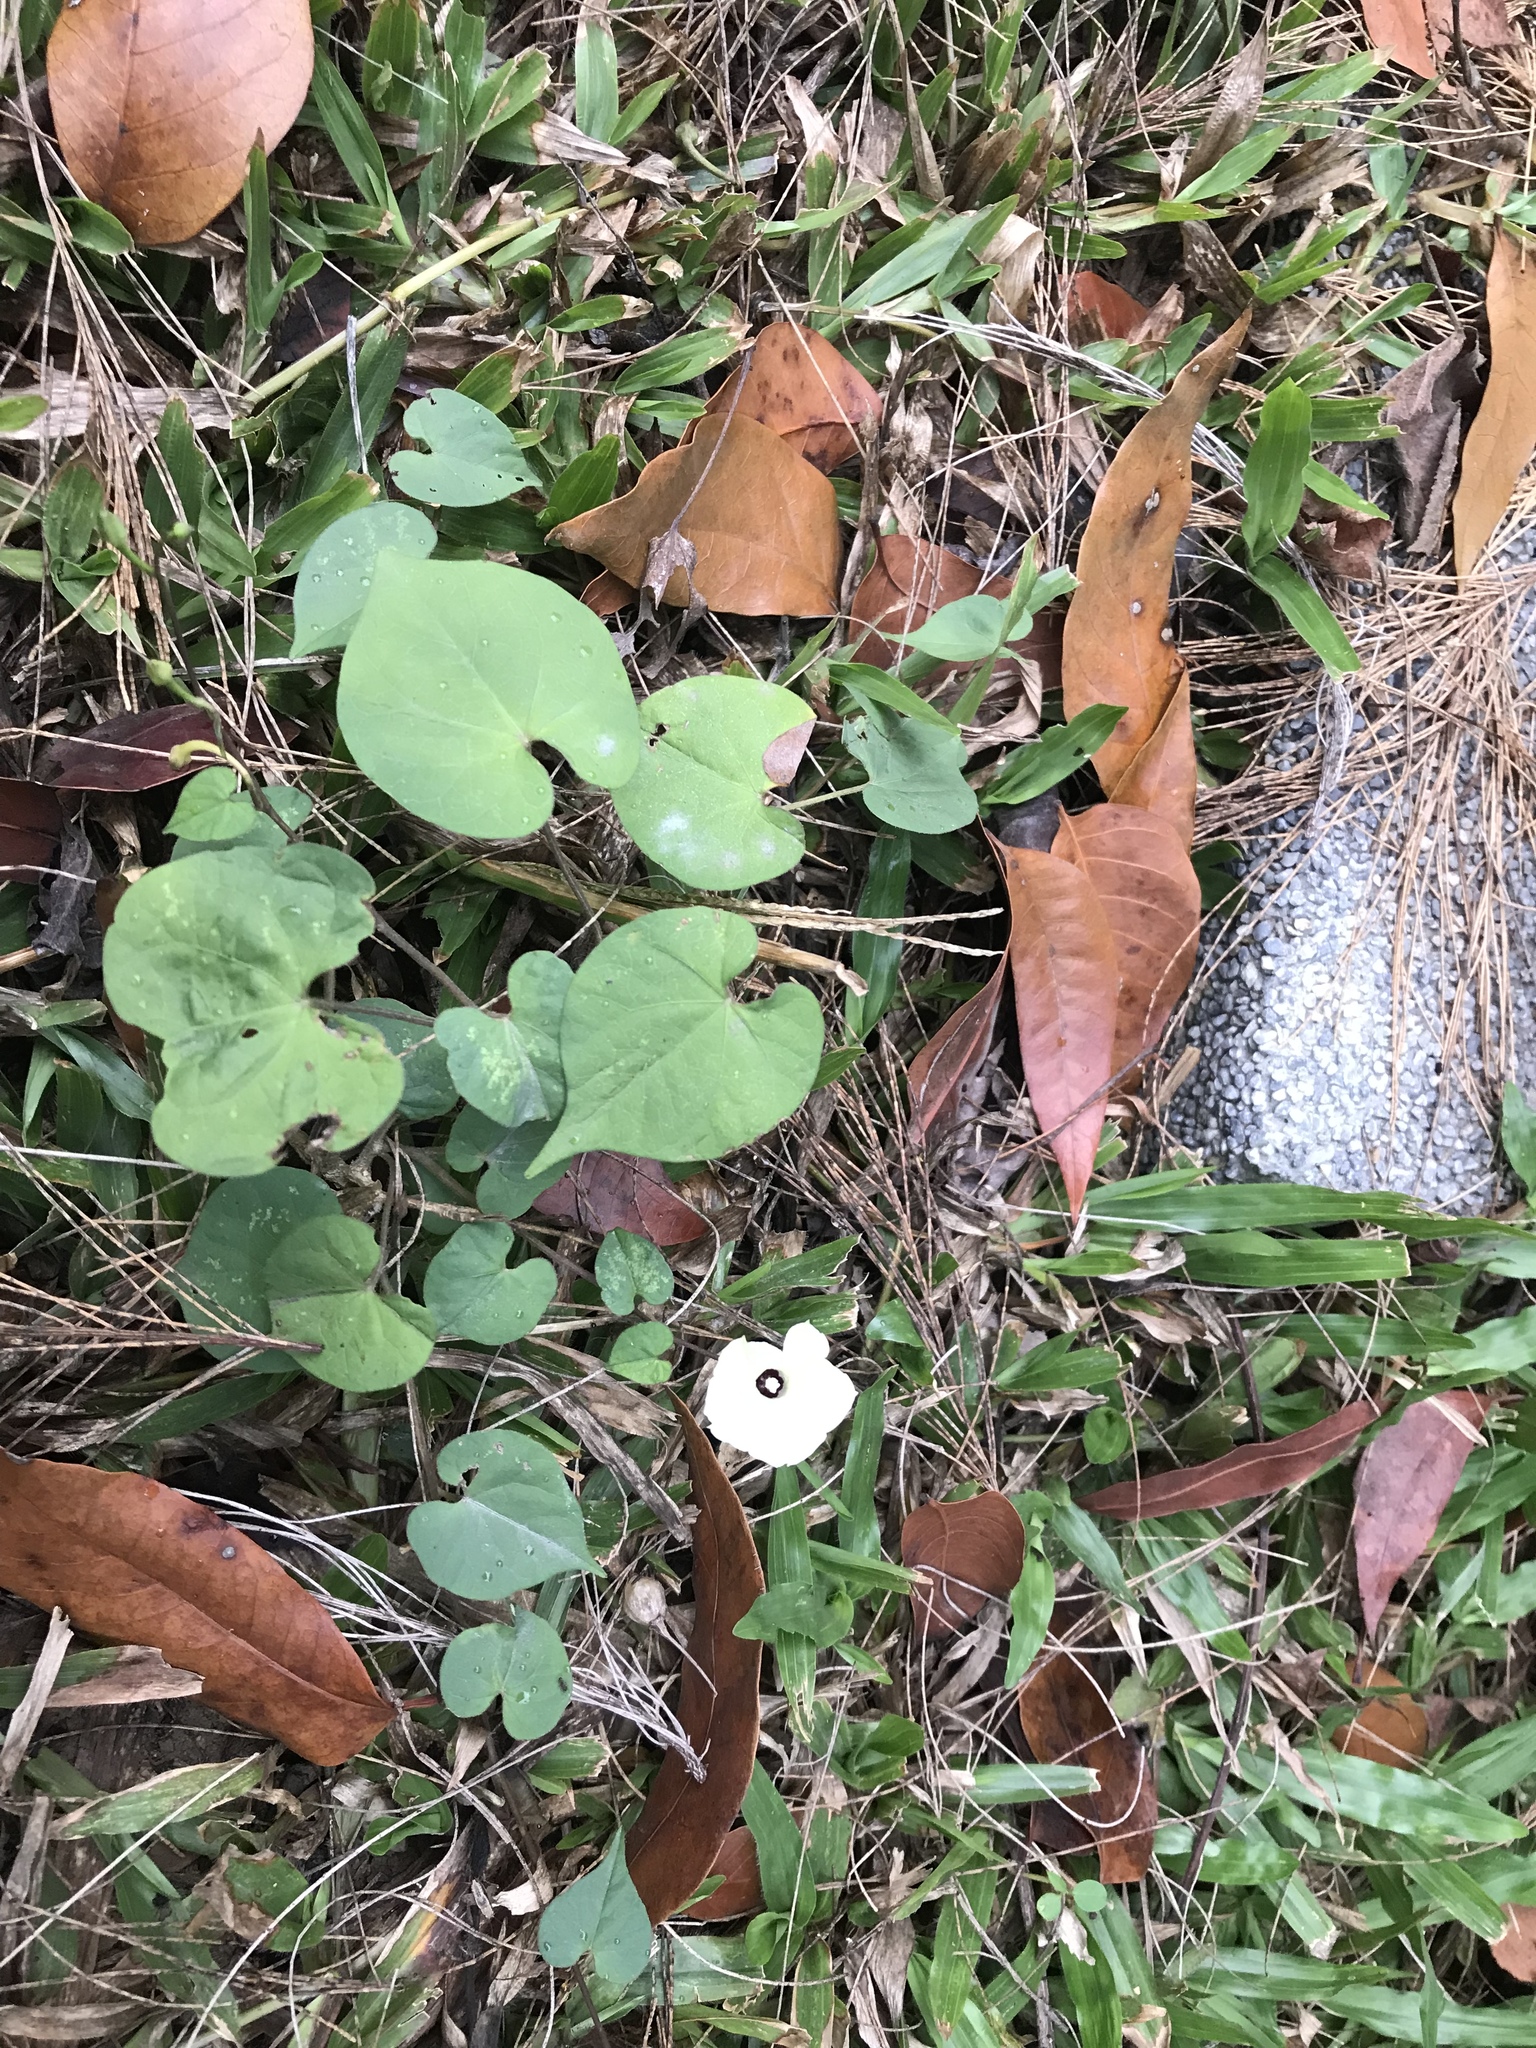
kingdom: Plantae
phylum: Tracheophyta
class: Magnoliopsida
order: Solanales
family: Convolvulaceae
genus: Ipomoea
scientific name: Ipomoea obscura
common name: Obscure morning-glory
